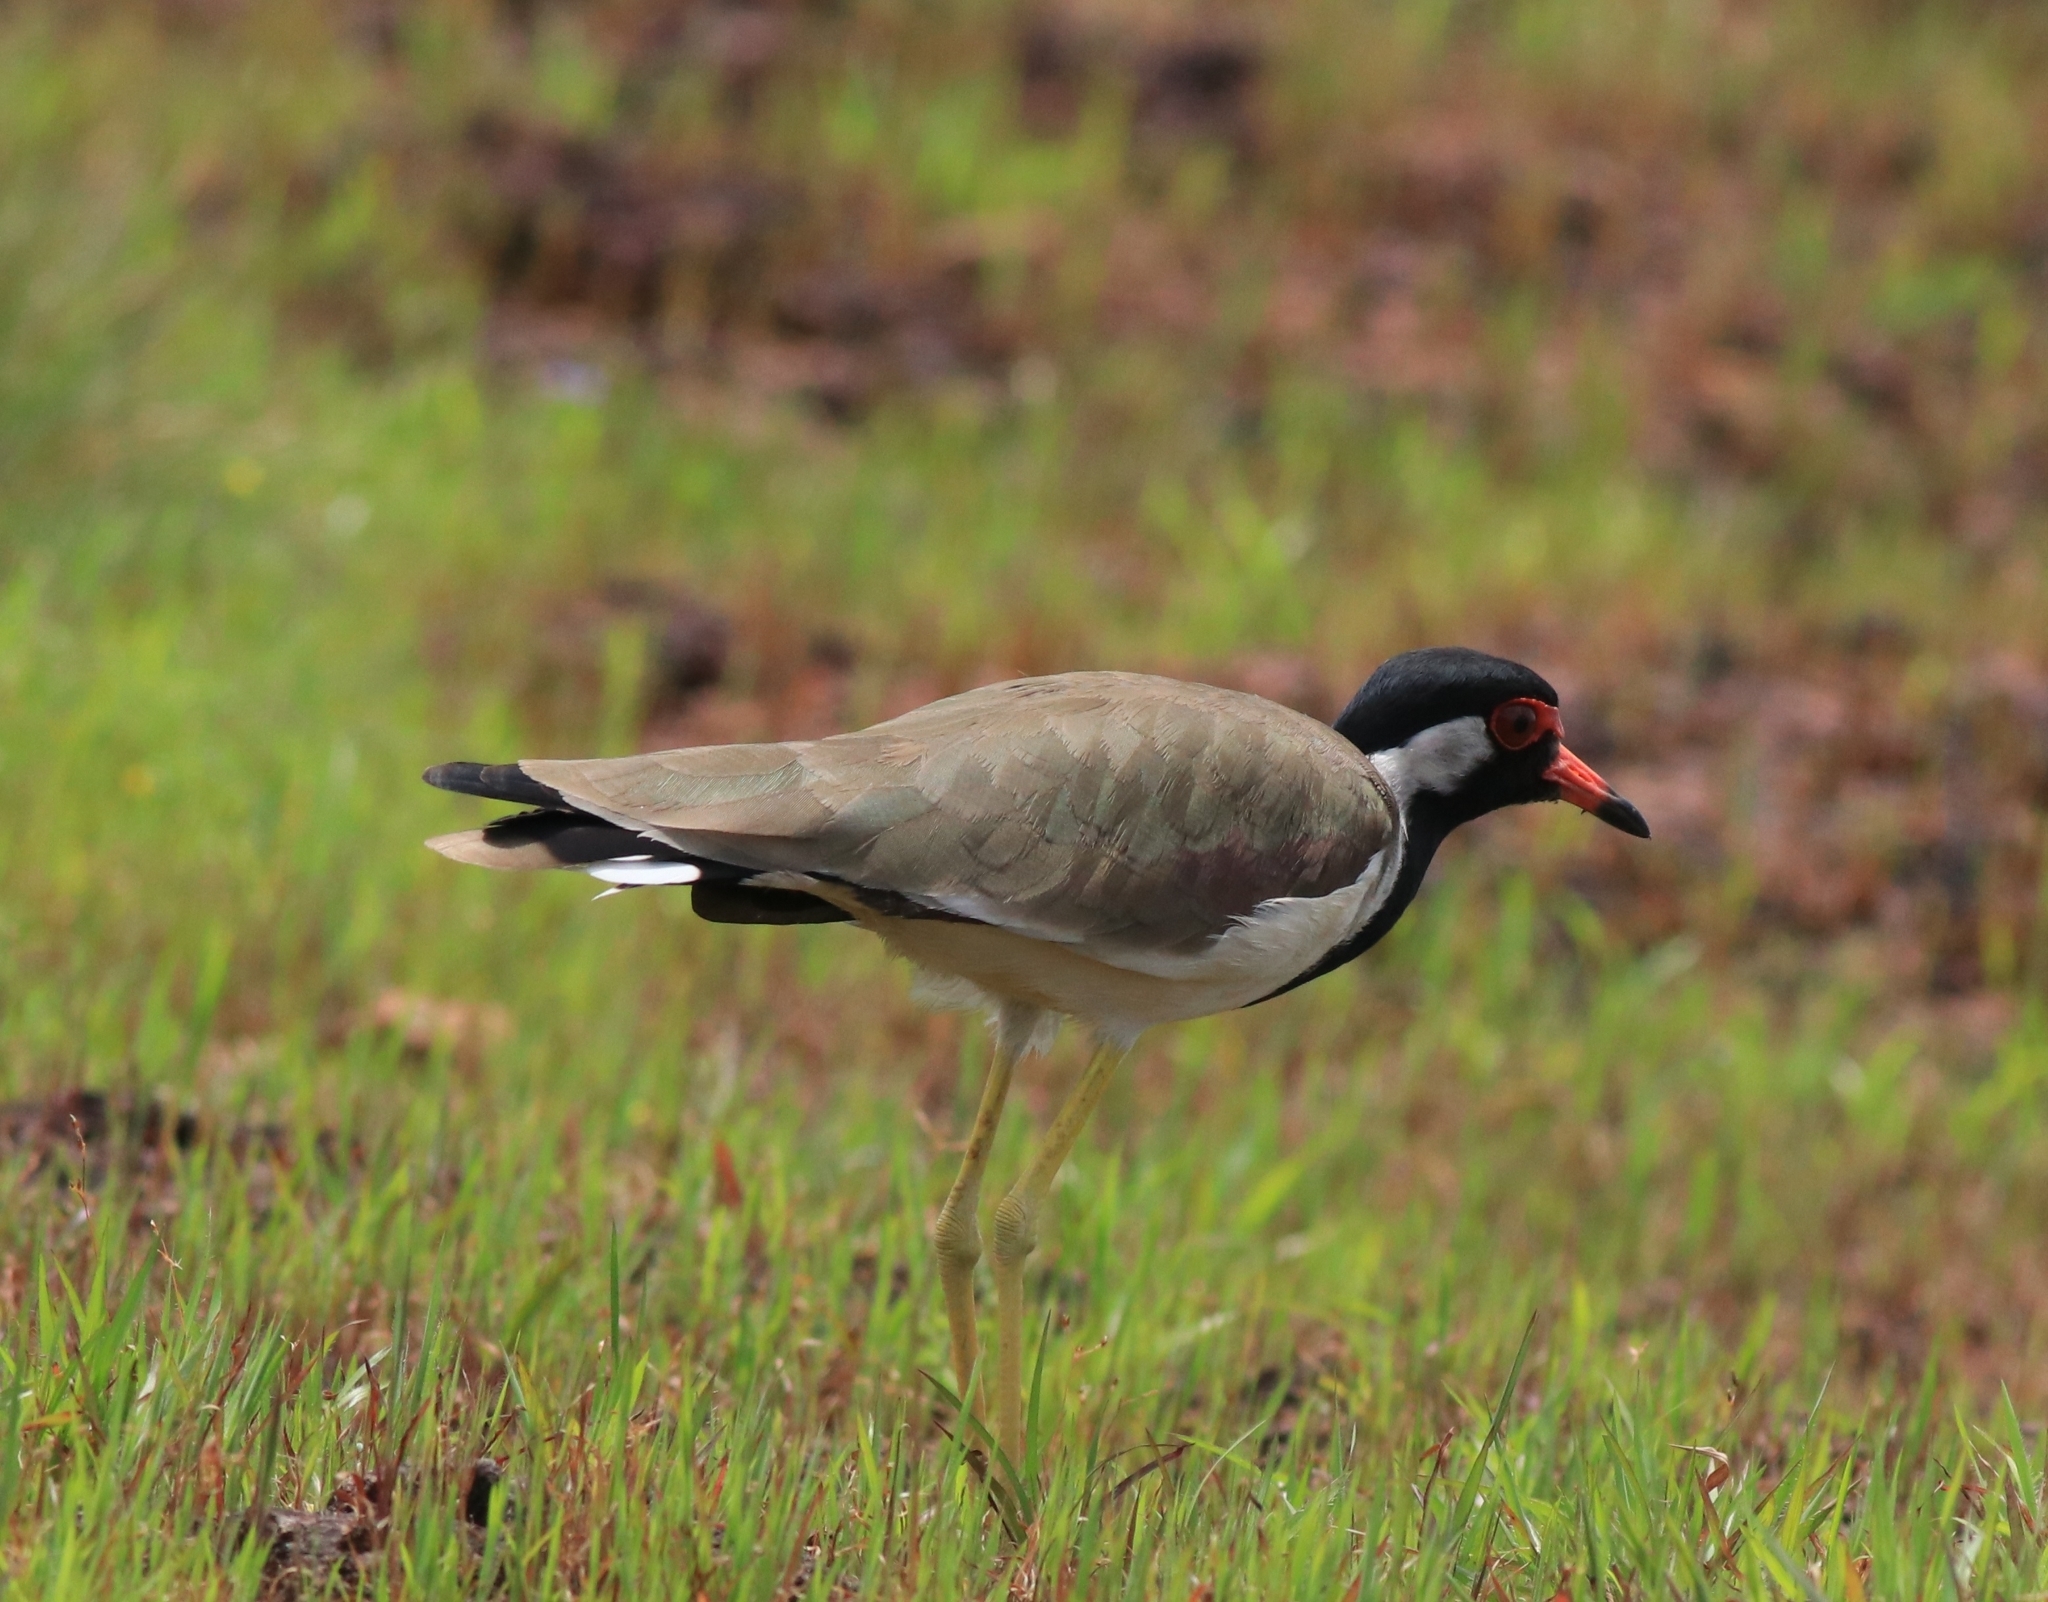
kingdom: Animalia
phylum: Chordata
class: Aves
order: Charadriiformes
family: Charadriidae
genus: Vanellus
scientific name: Vanellus indicus
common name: Red-wattled lapwing
